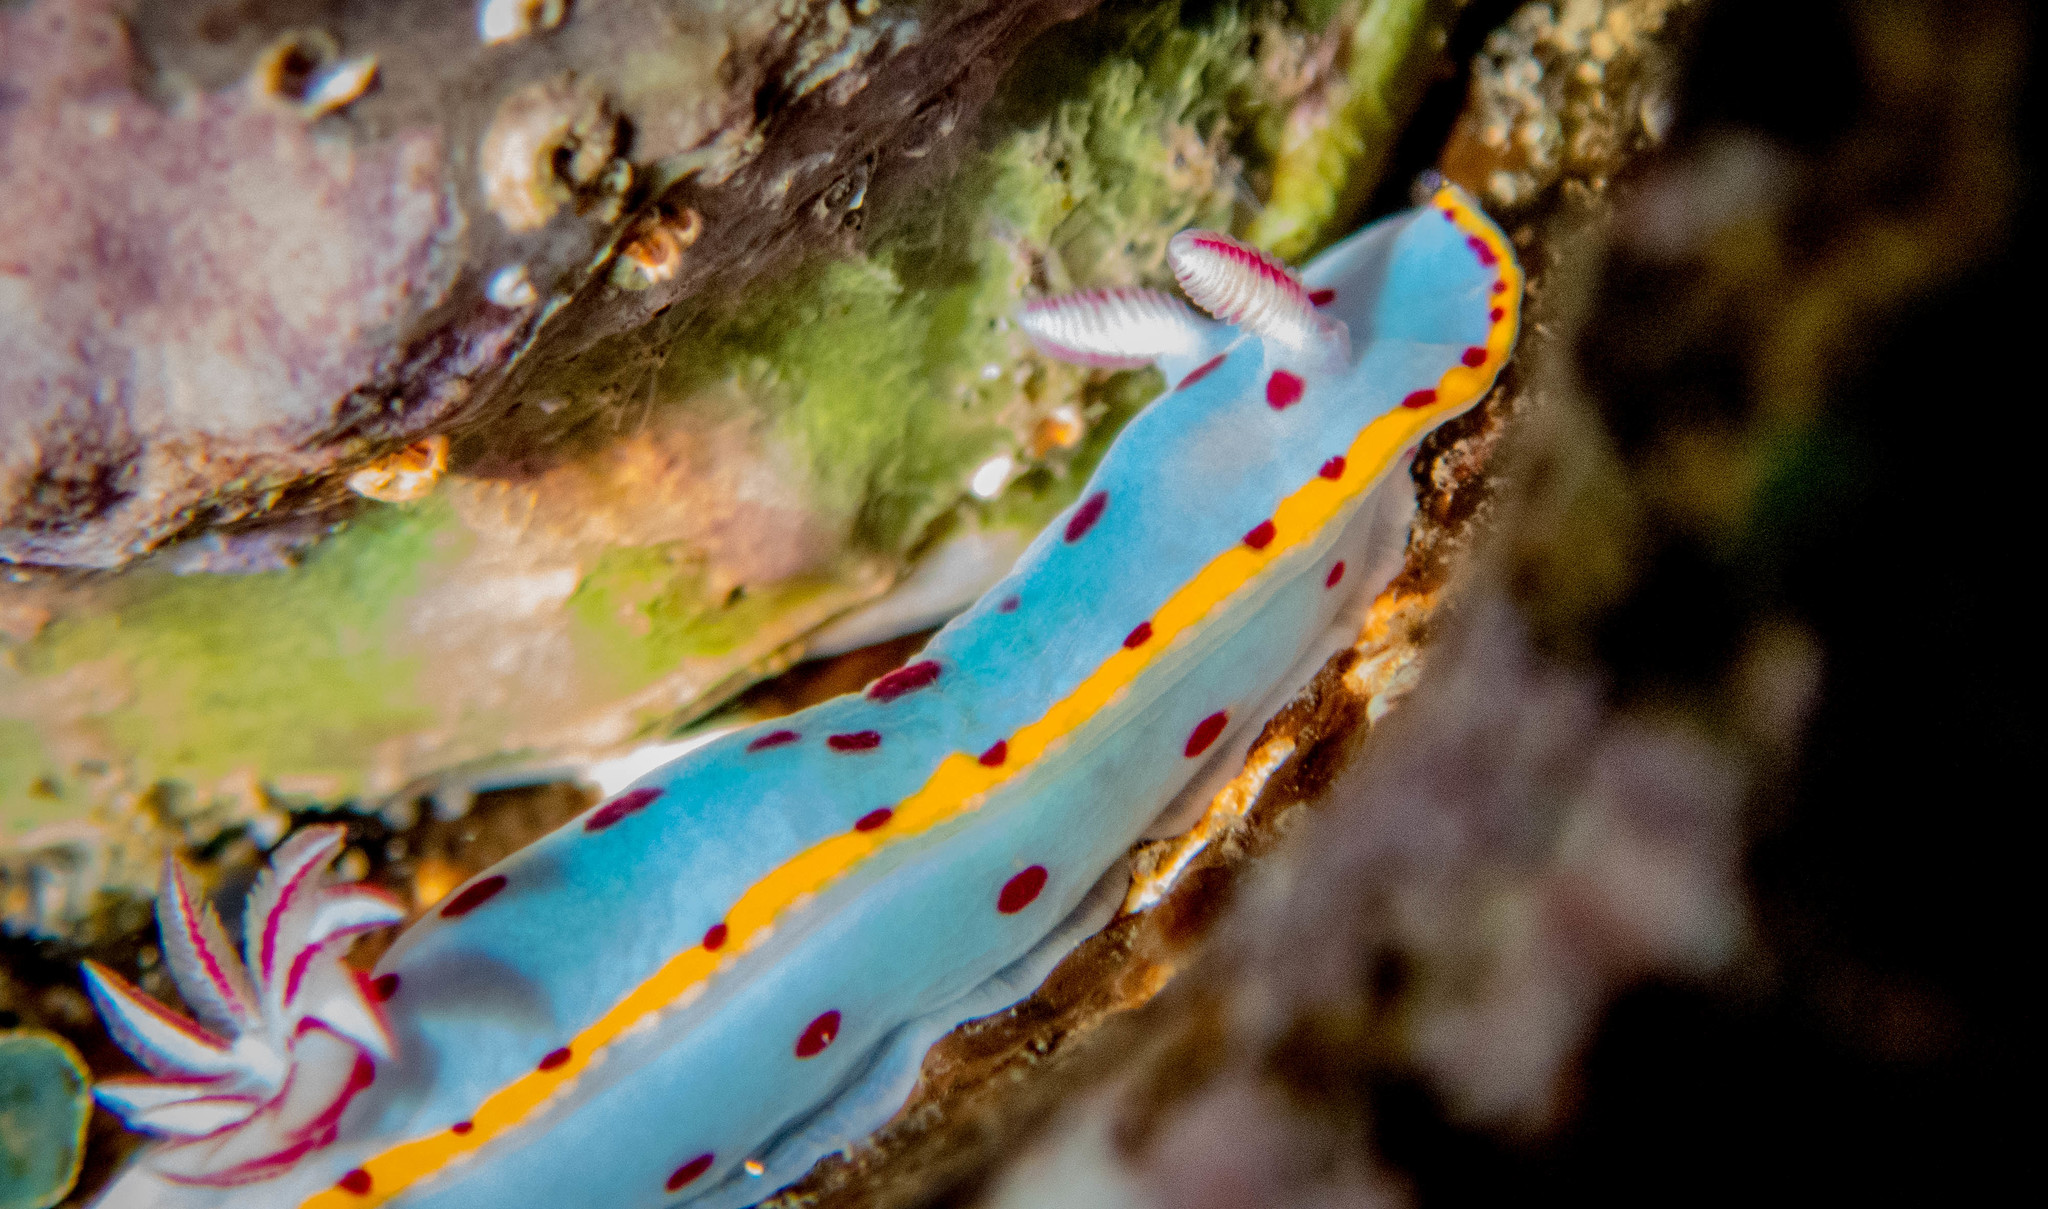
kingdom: Animalia
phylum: Mollusca
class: Gastropoda
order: Nudibranchia
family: Chromodorididae
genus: Hypselodoris
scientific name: Hypselodoris bennetti
